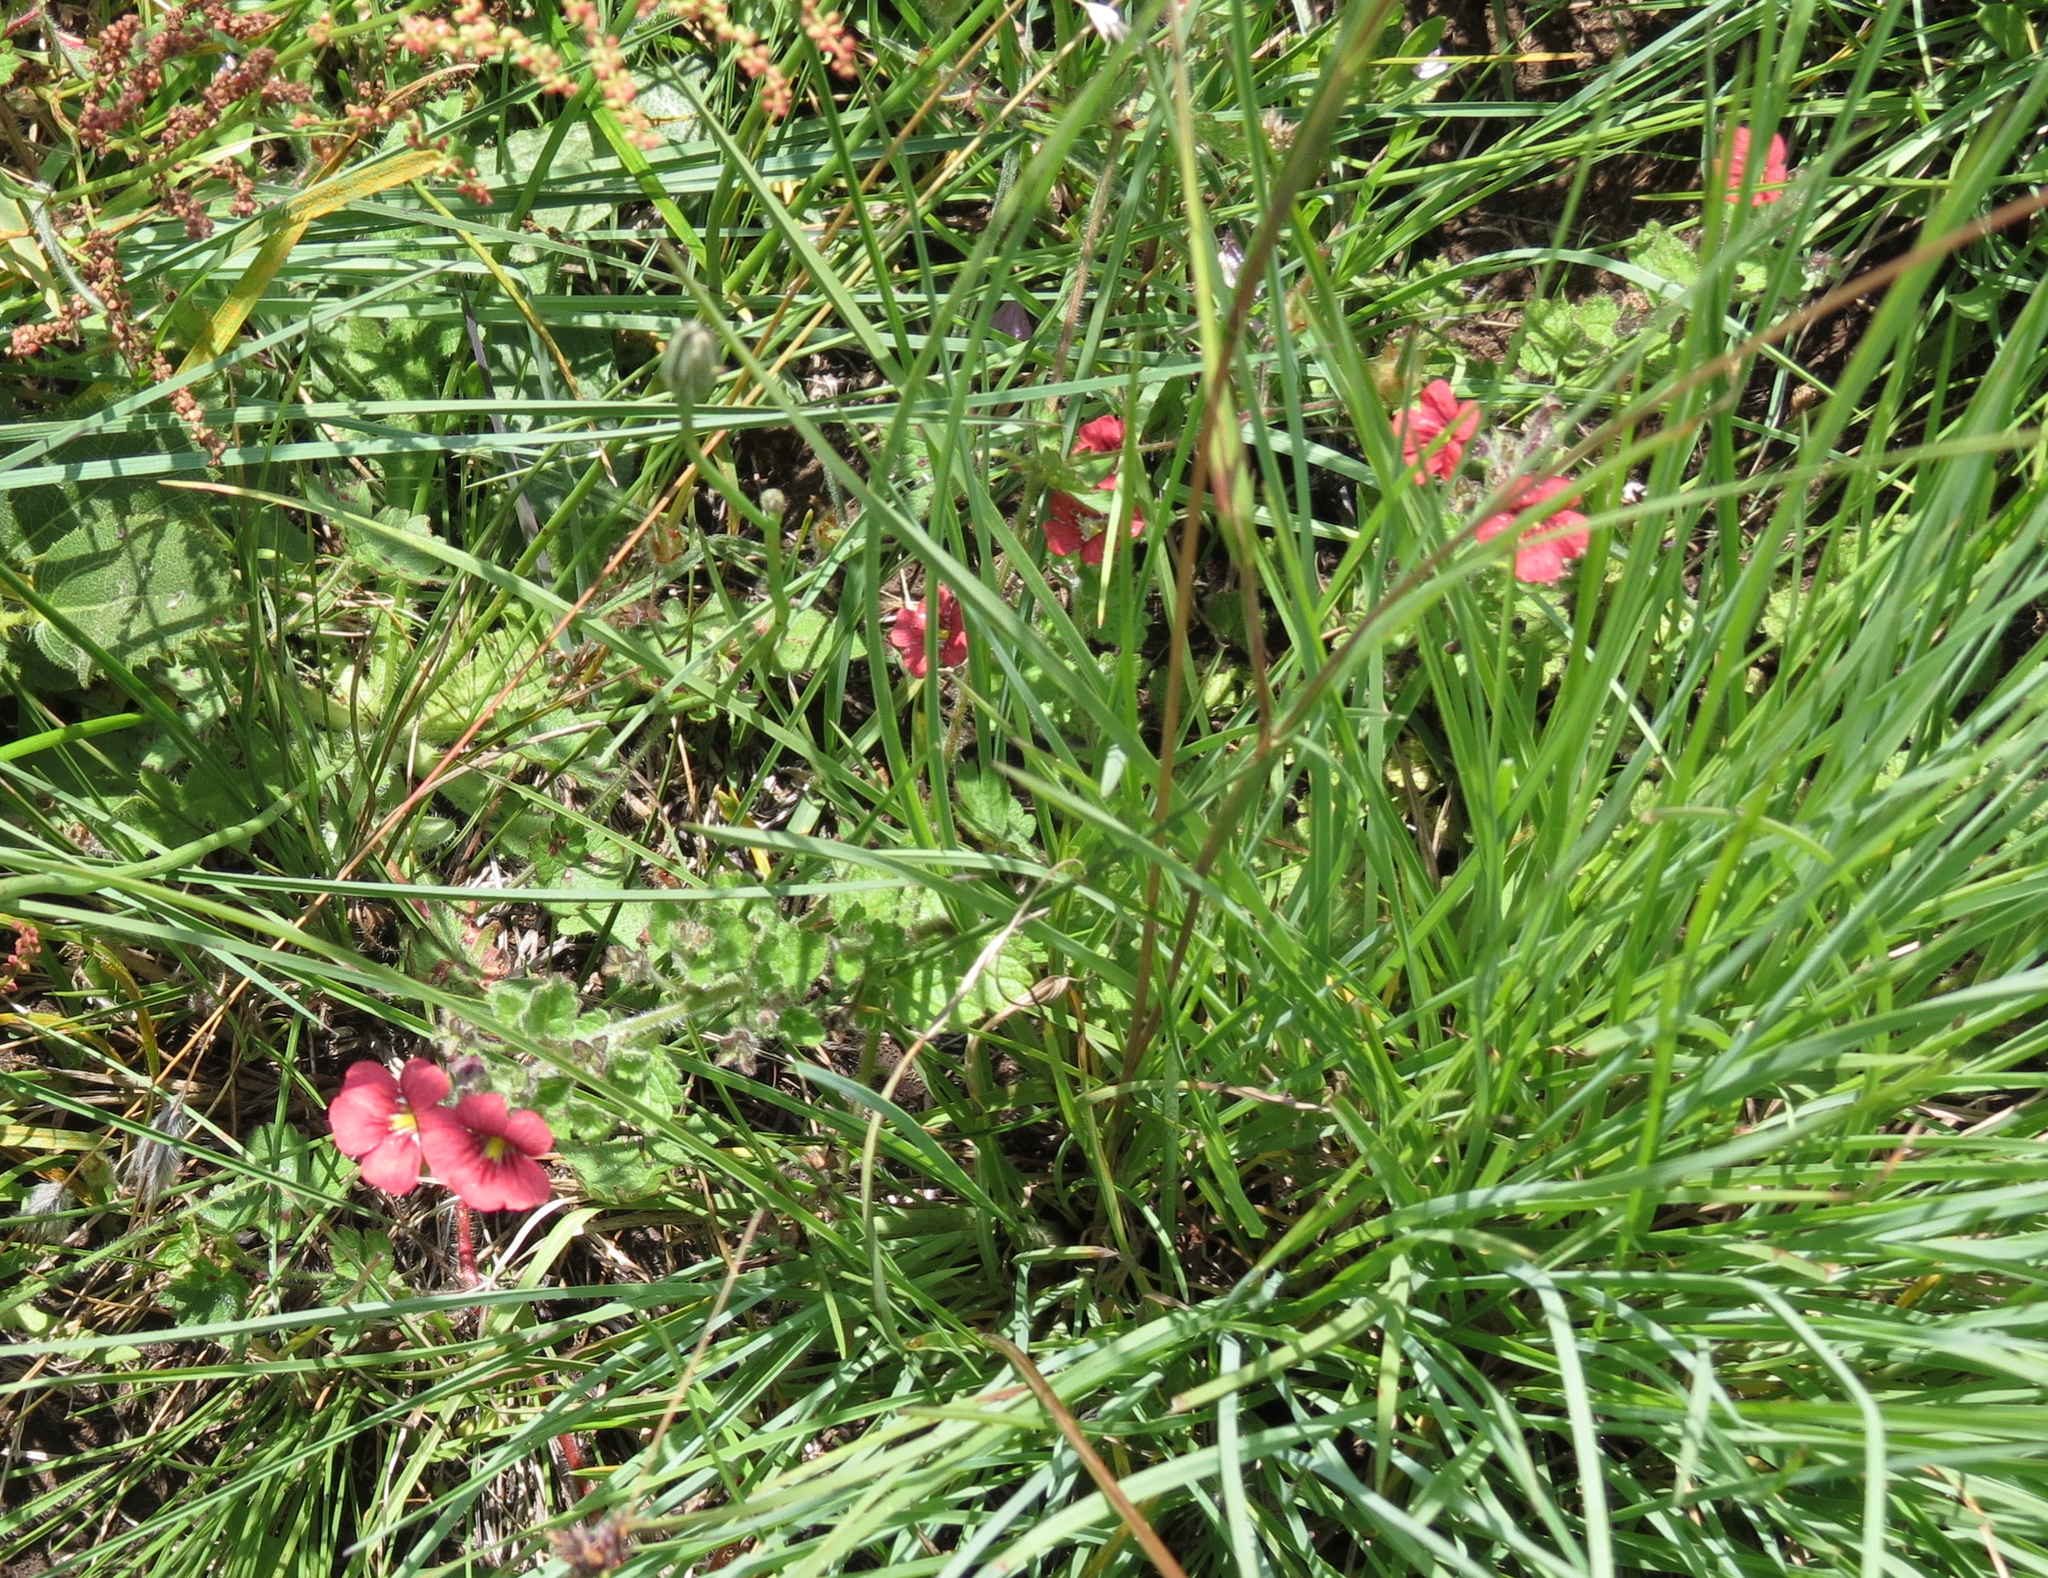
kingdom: Plantae
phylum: Tracheophyta
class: Magnoliopsida
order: Lamiales
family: Scrophulariaceae
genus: Jamesbrittenia
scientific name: Jamesbrittenia breviflora
